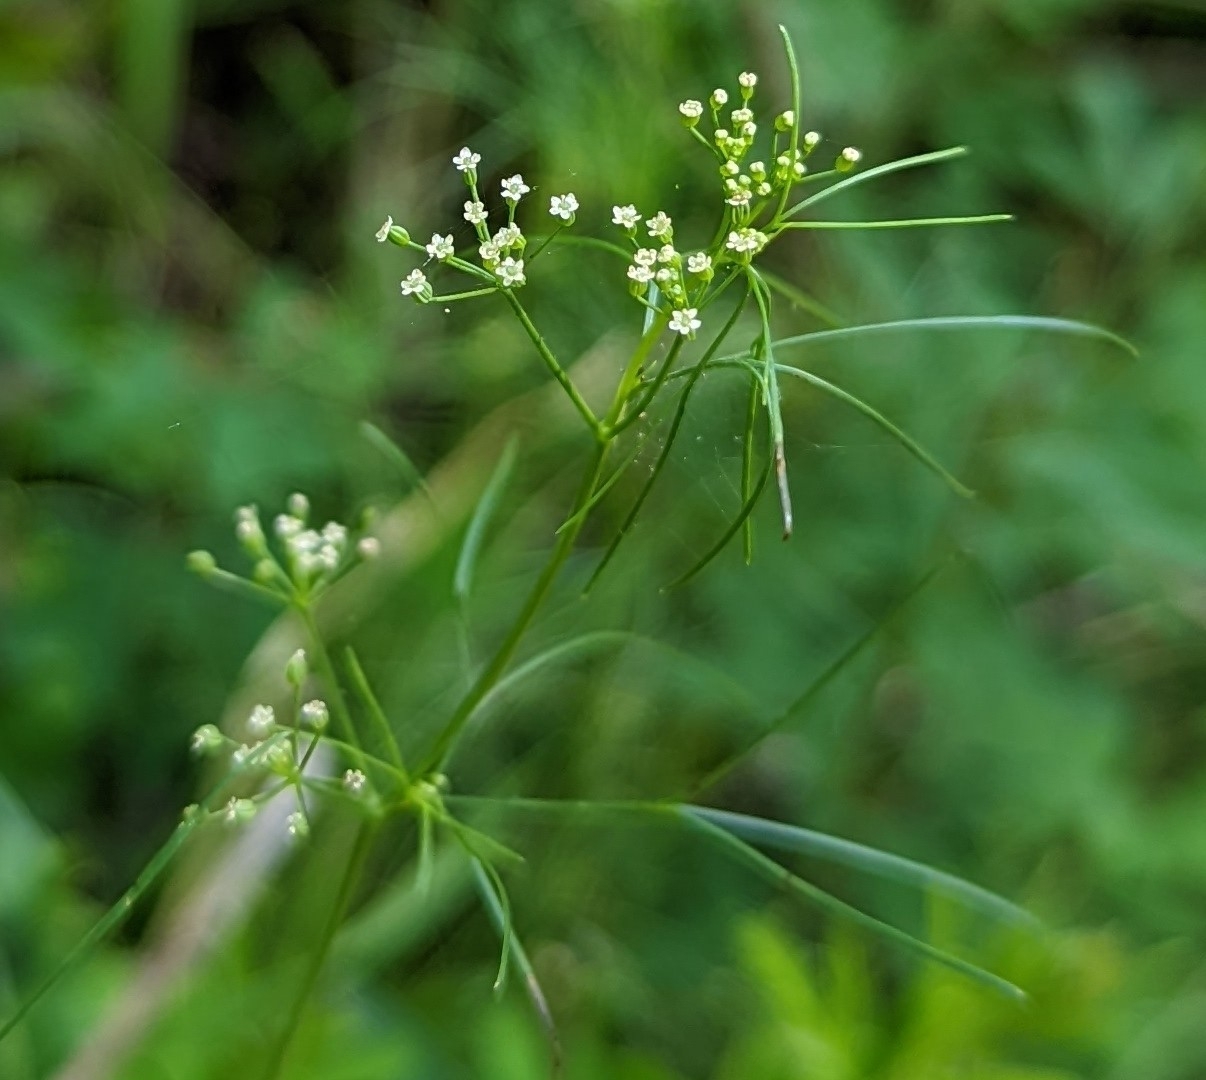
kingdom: Plantae
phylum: Tracheophyta
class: Magnoliopsida
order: Apiales
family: Apiaceae
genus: Cyclospermum
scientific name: Cyclospermum leptophyllum
